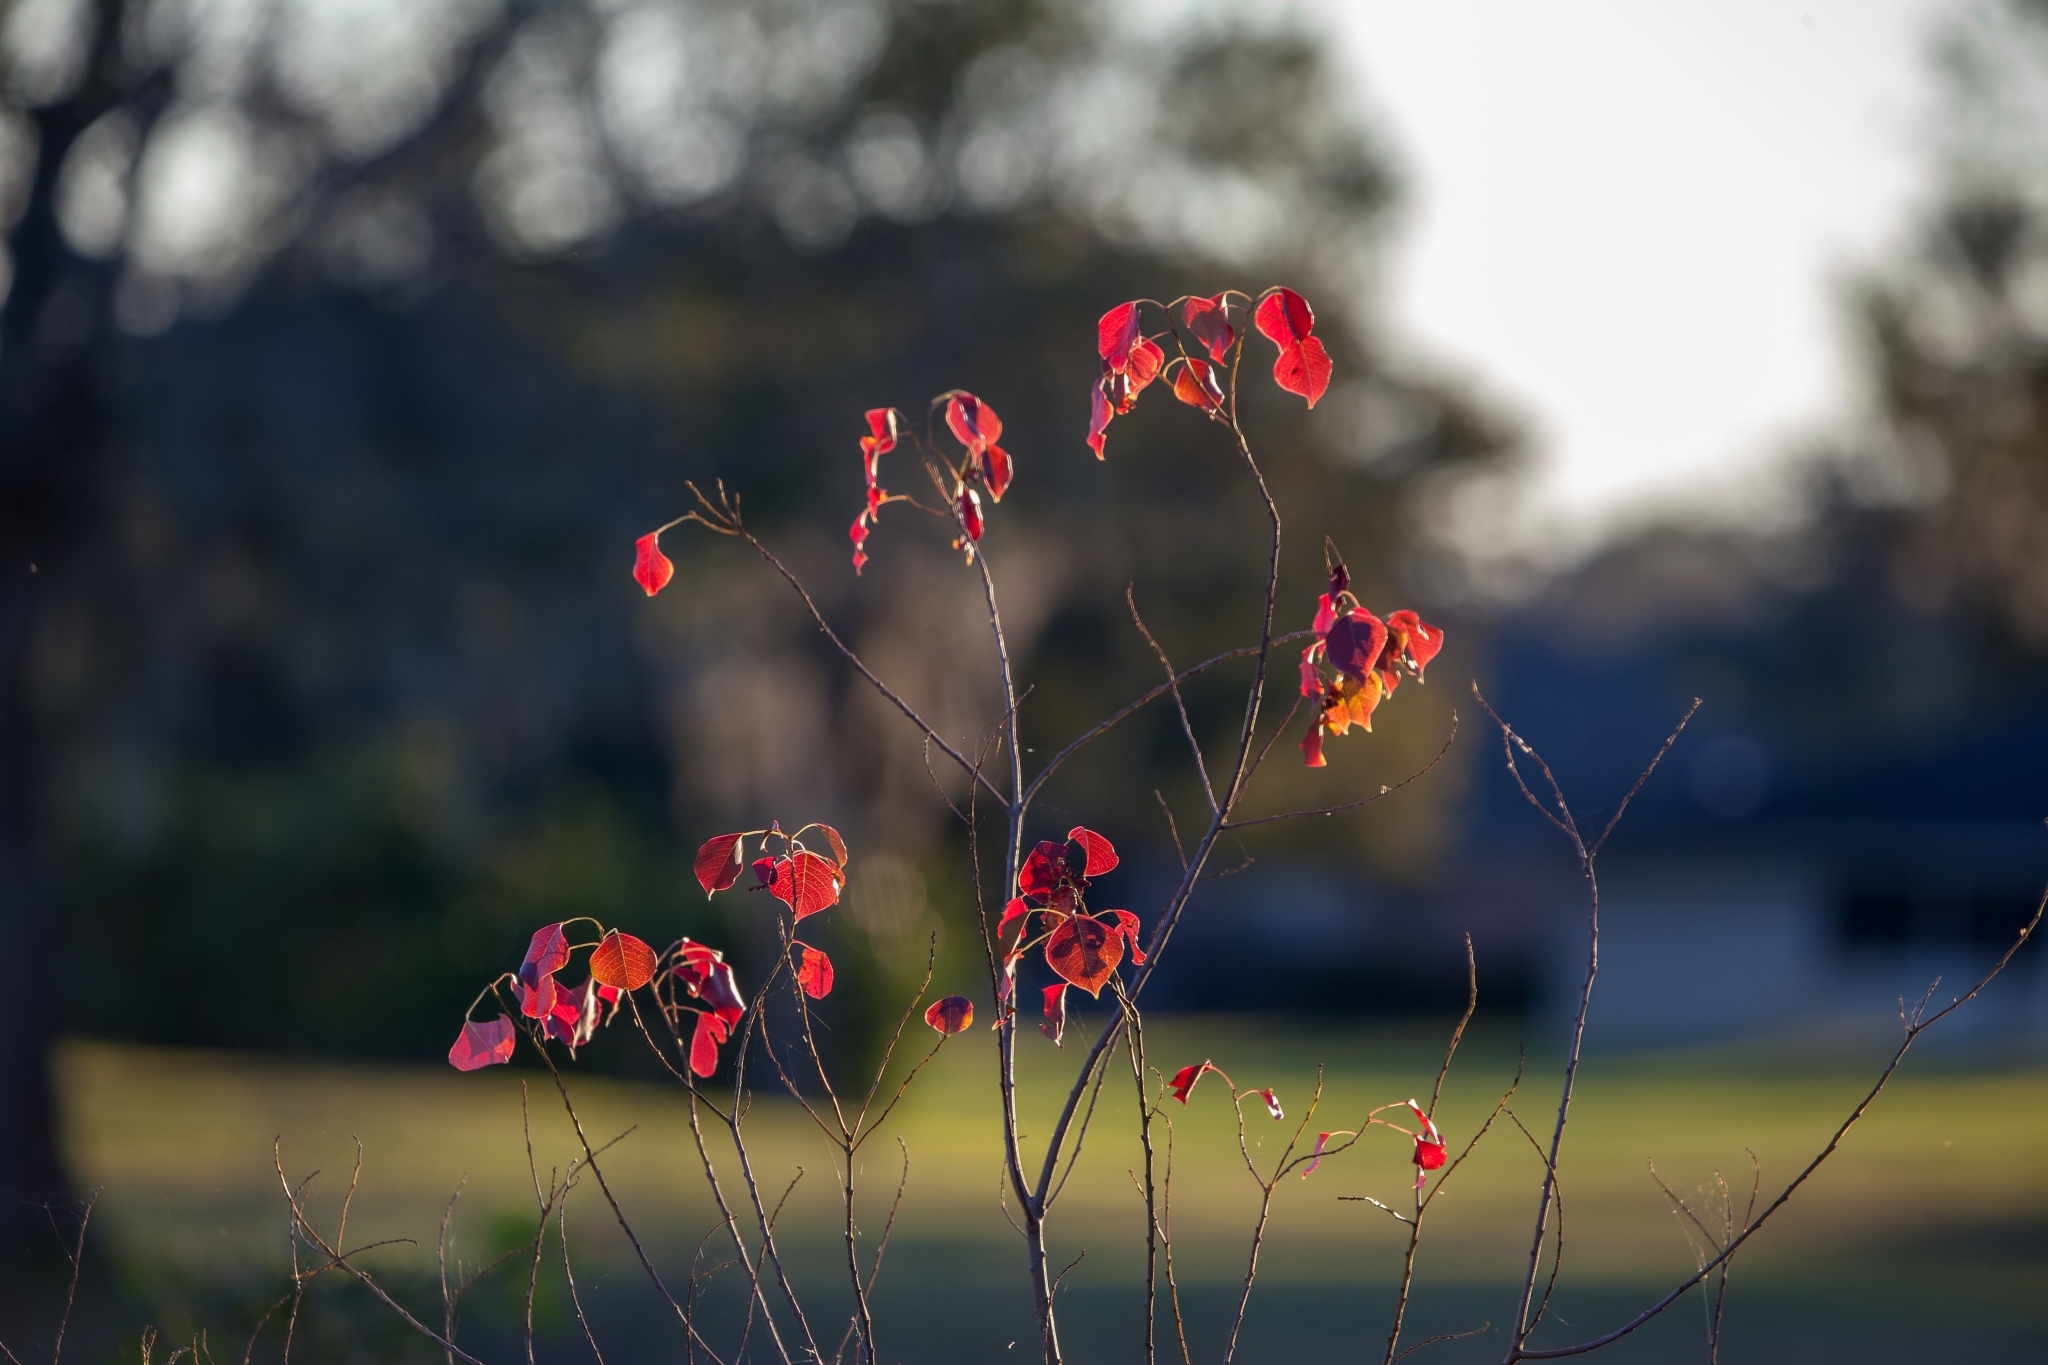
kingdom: Plantae
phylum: Tracheophyta
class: Magnoliopsida
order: Malpighiales
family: Euphorbiaceae
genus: Triadica
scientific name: Triadica sebifera
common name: Chinese tallow
